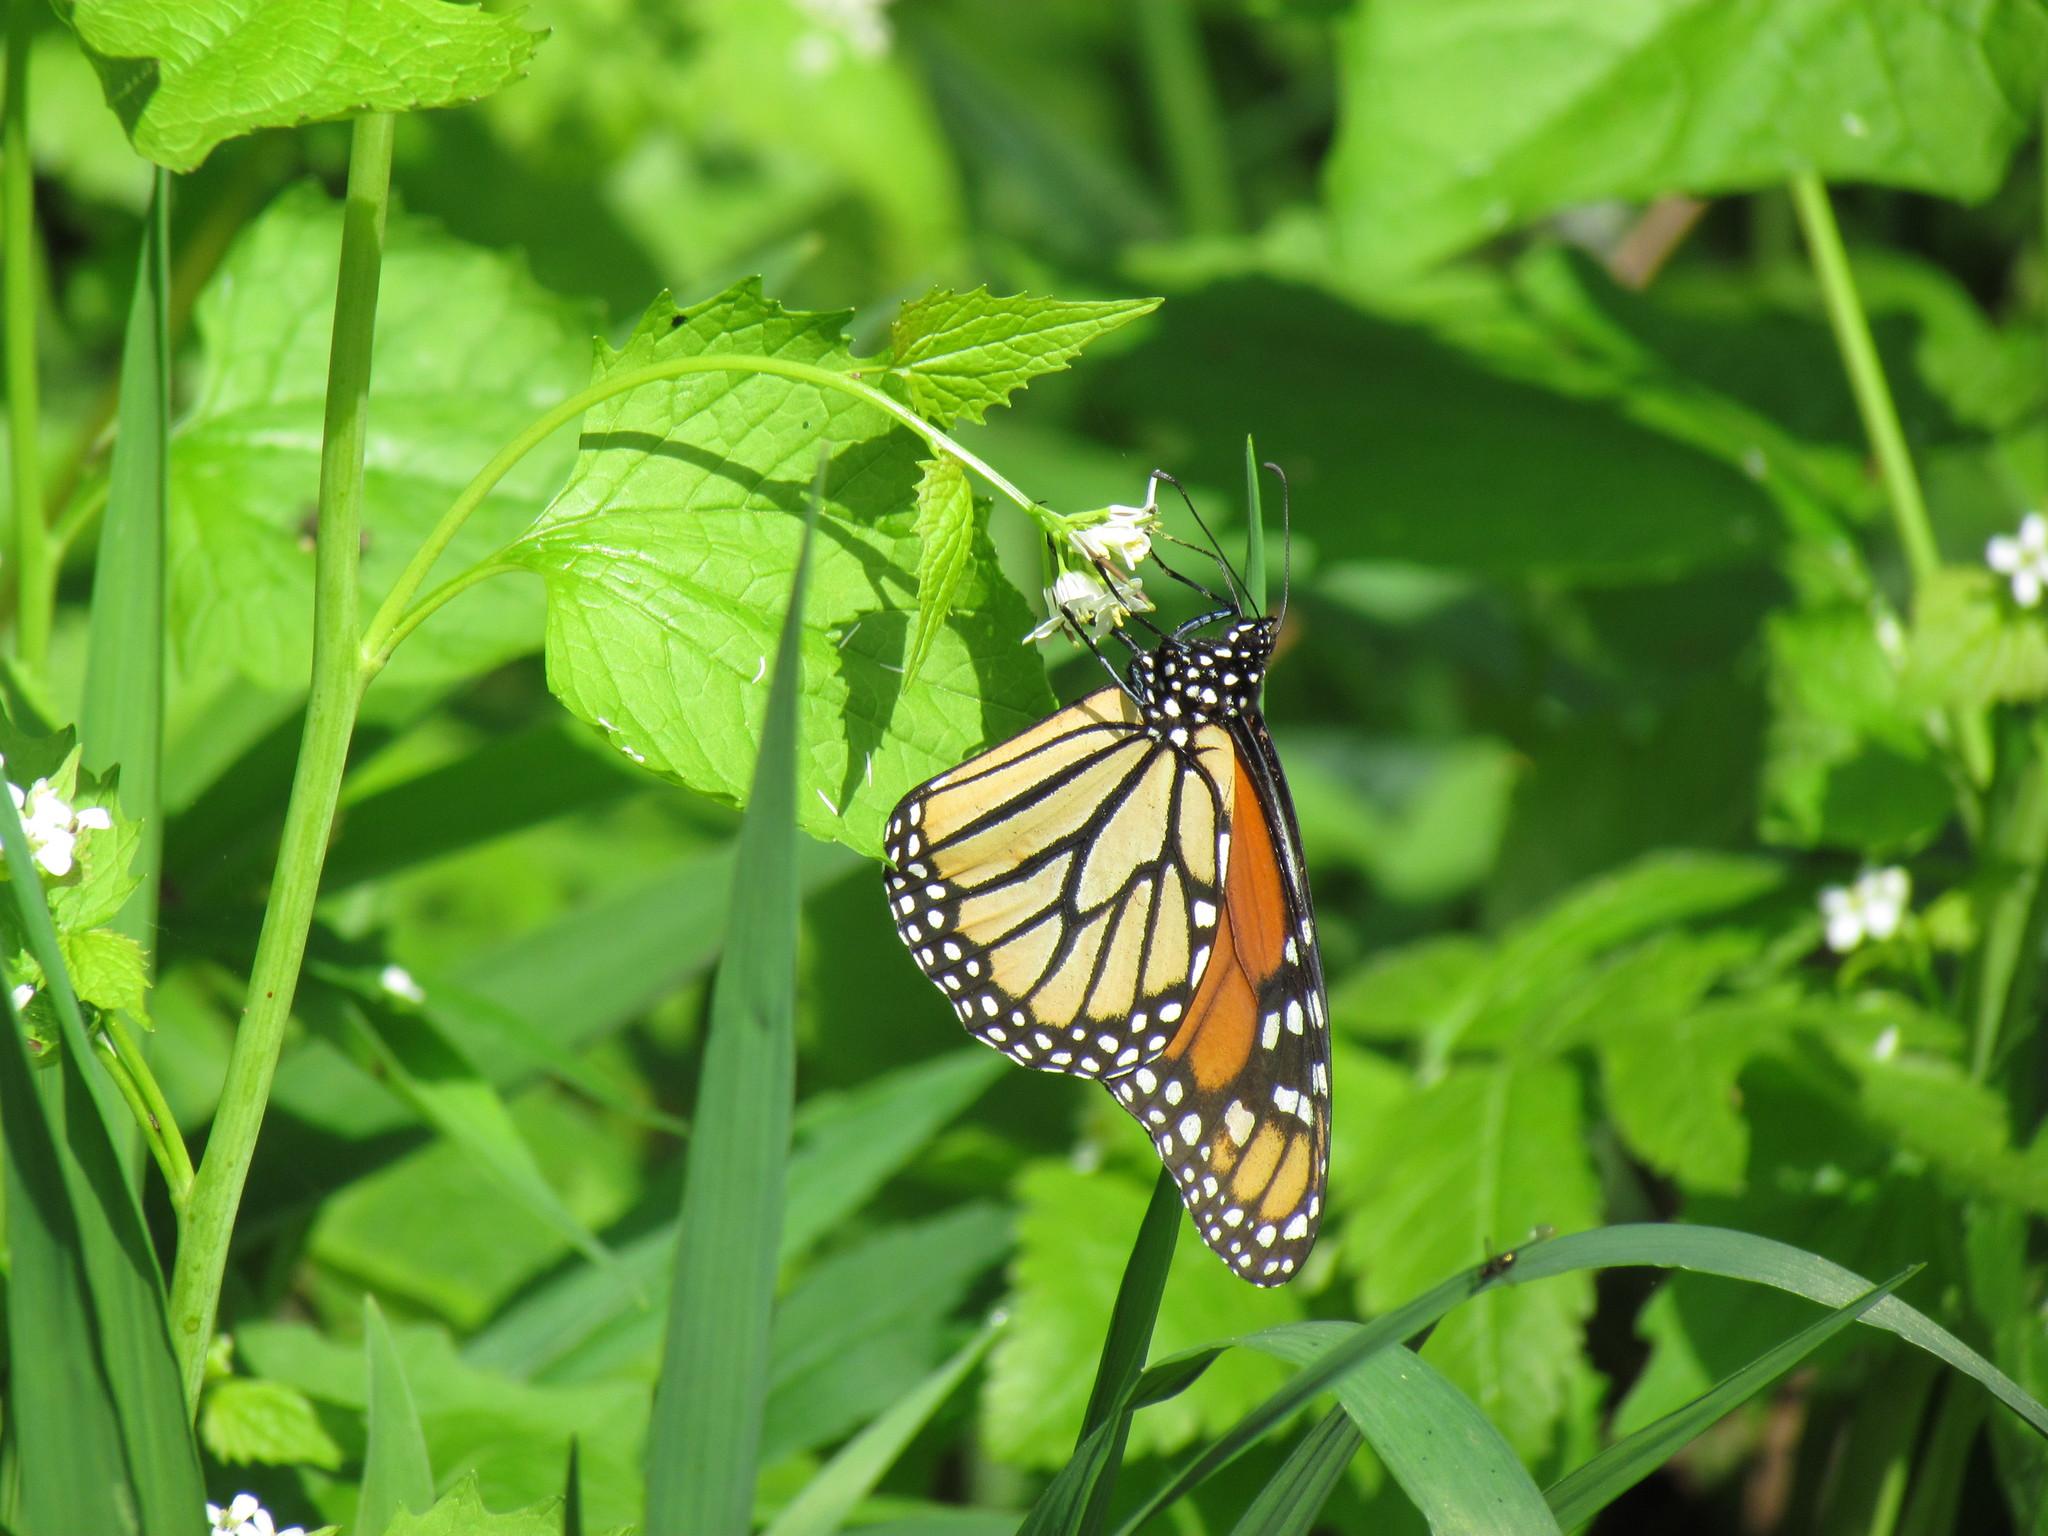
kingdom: Animalia
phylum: Arthropoda
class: Insecta
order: Lepidoptera
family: Nymphalidae
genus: Danaus
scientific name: Danaus plexippus
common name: Monarch
